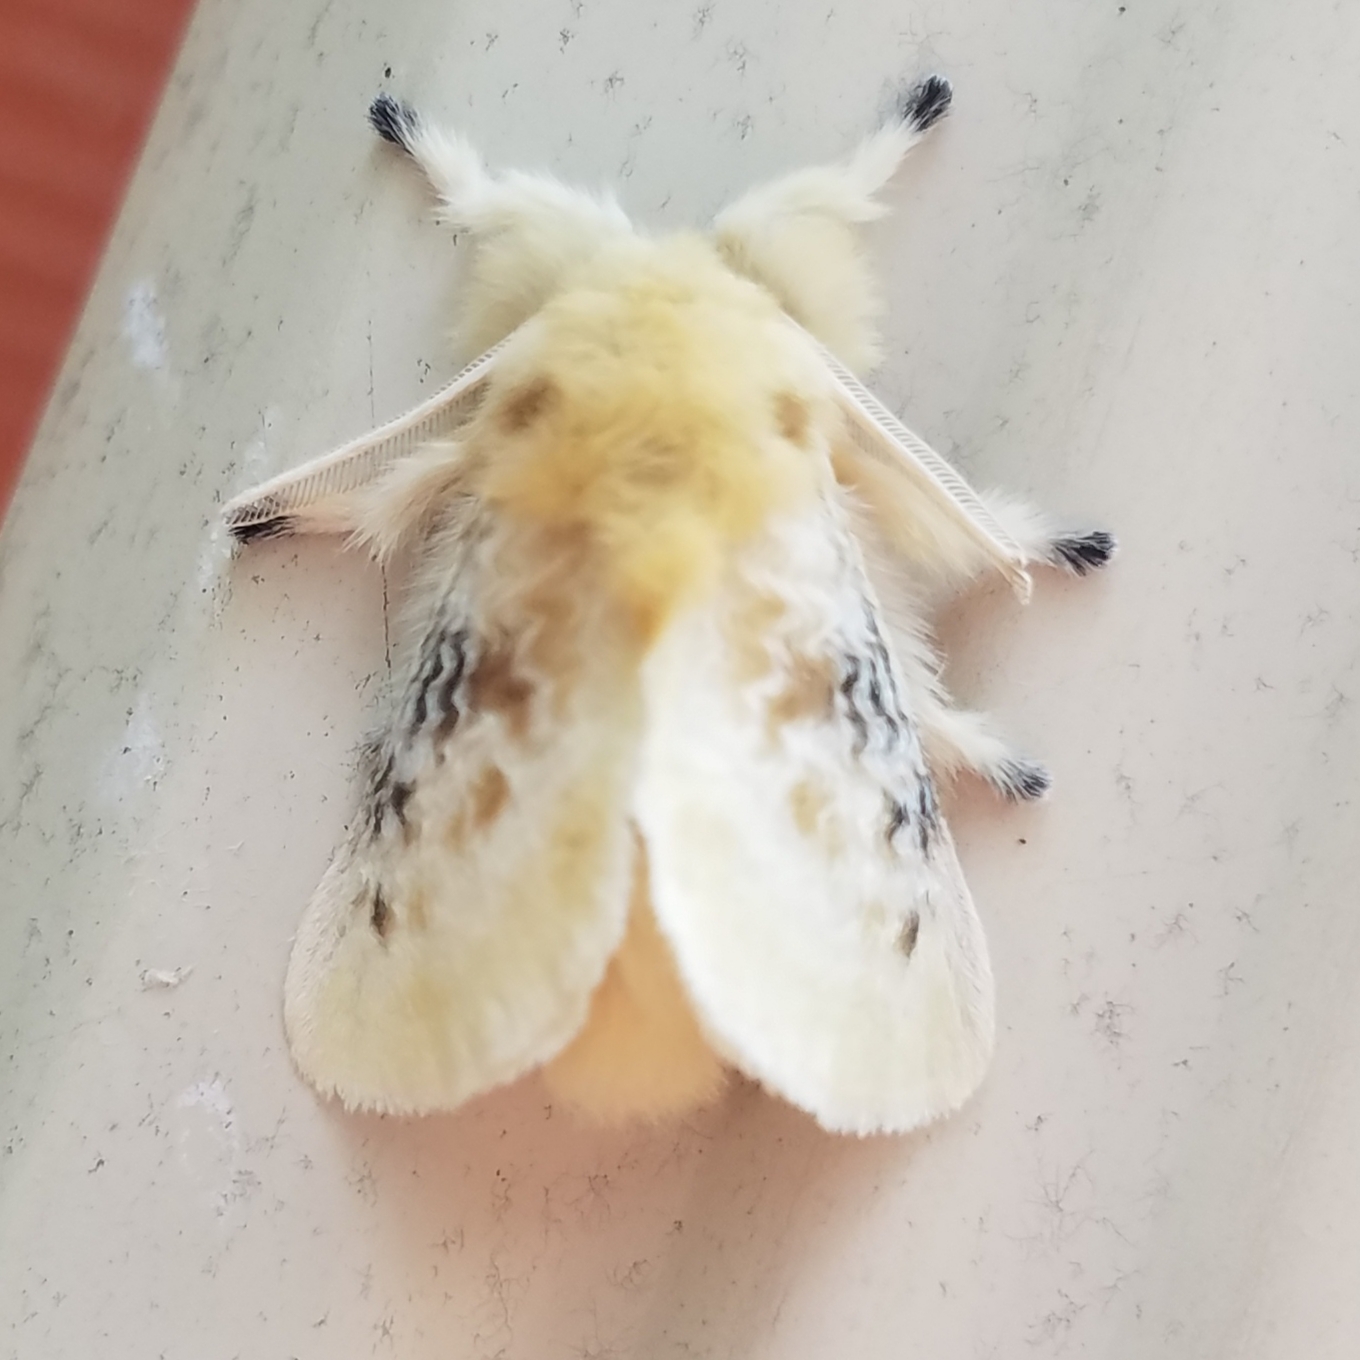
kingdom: Animalia
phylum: Arthropoda
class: Insecta
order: Lepidoptera
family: Megalopygidae
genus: Megalopyge
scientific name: Megalopyge crispata
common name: Black-waved flannel moth
